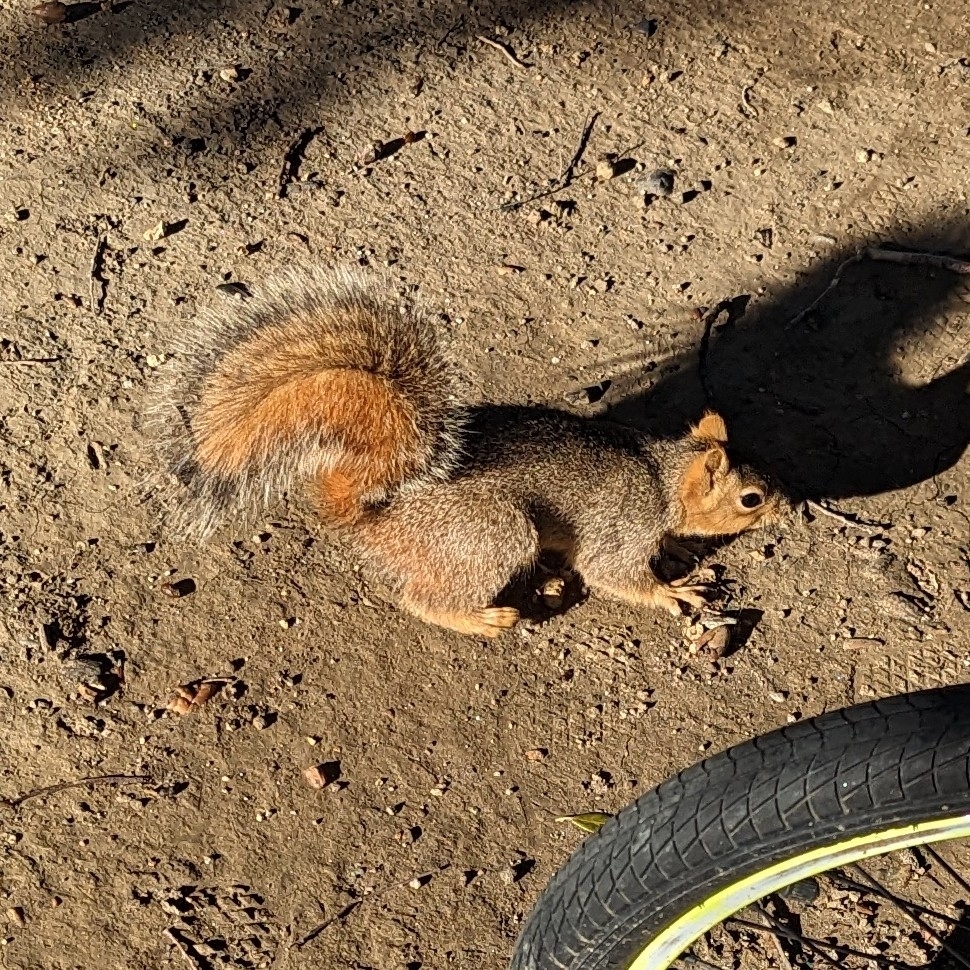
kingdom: Animalia
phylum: Chordata
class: Mammalia
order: Rodentia
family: Sciuridae
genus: Sciurus
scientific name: Sciurus niger
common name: Fox squirrel
